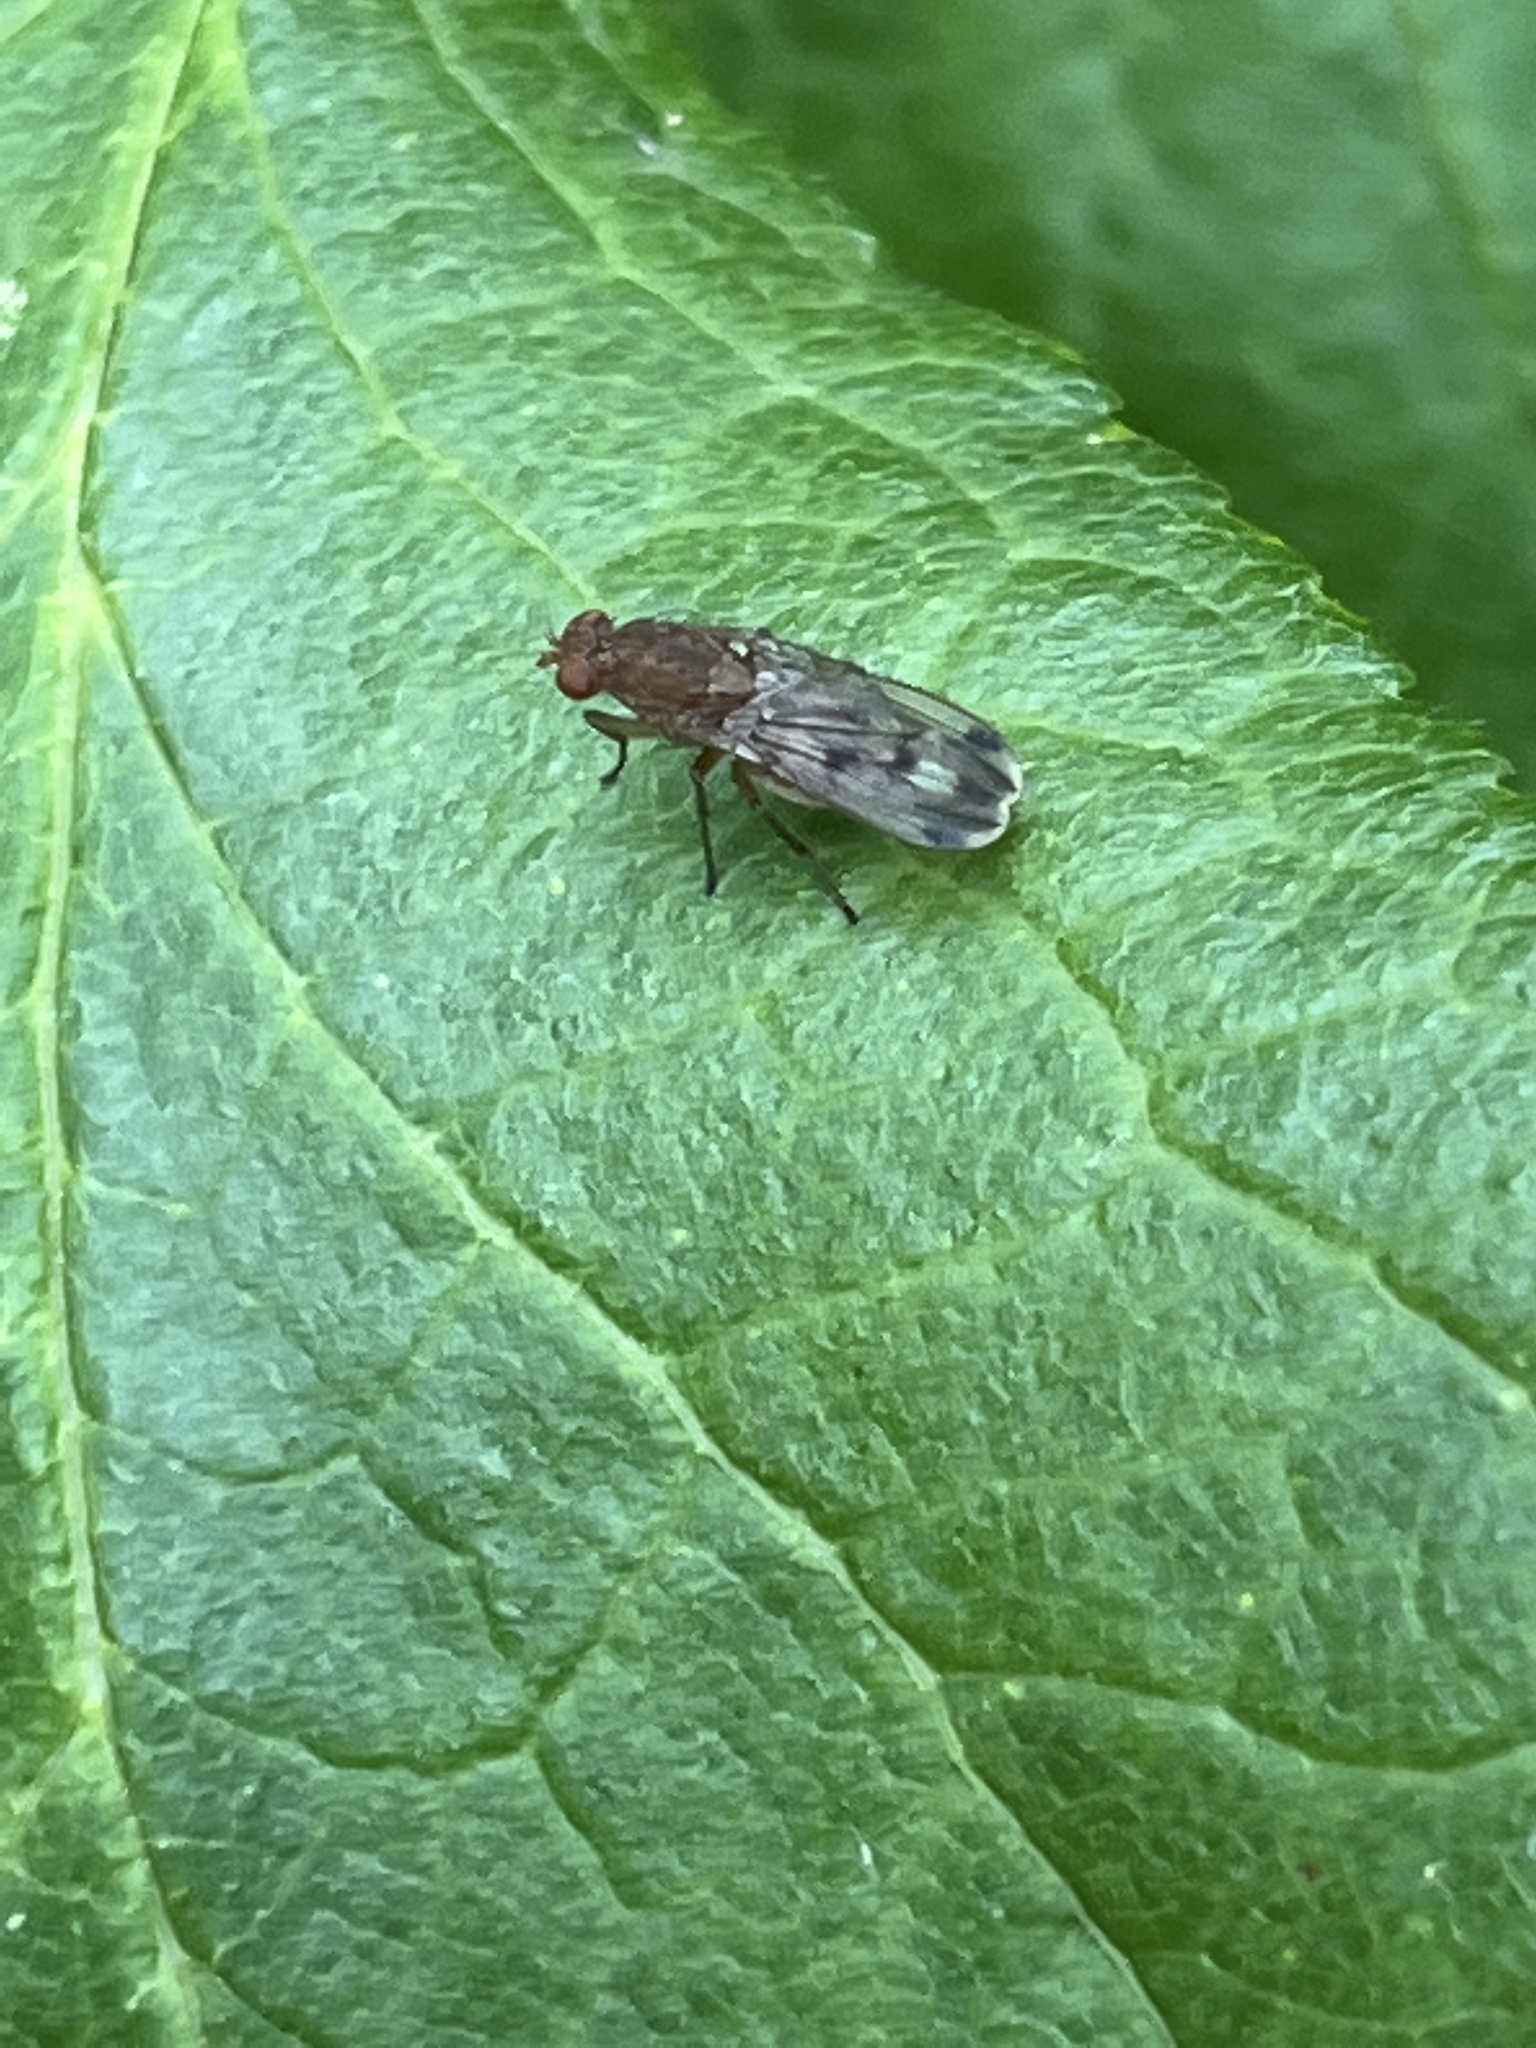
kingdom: Animalia
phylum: Arthropoda
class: Insecta
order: Diptera
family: Heleomyzidae
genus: Suillia
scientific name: Suillia variegata
